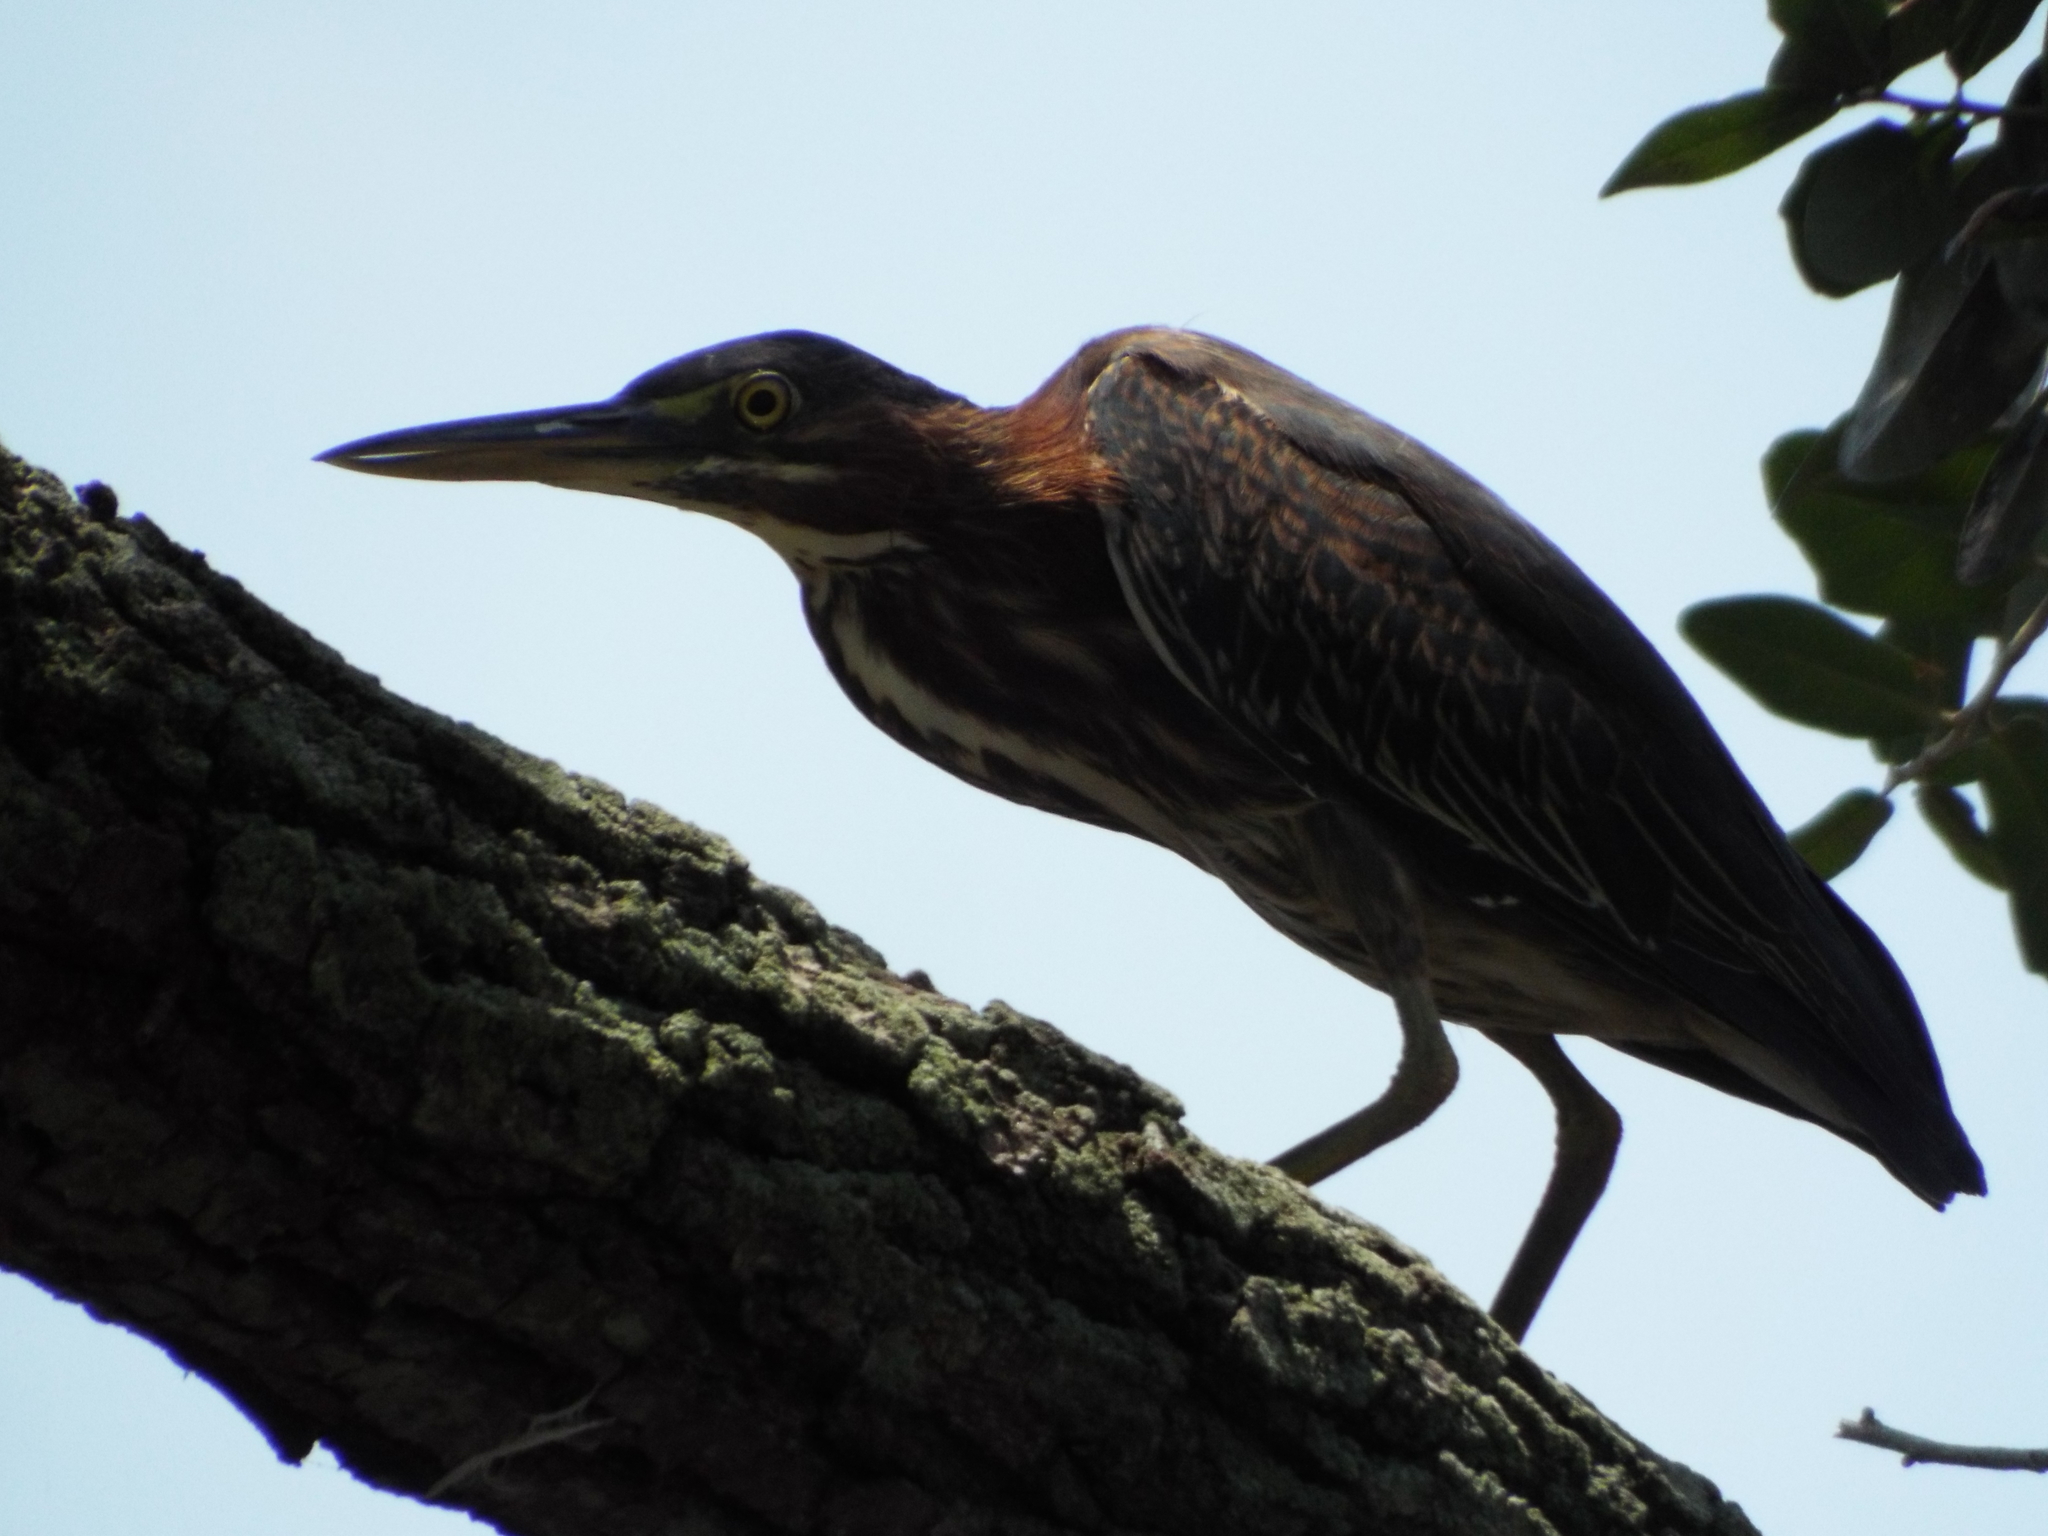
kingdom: Animalia
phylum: Chordata
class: Aves
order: Pelecaniformes
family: Ardeidae
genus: Butorides
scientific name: Butorides virescens
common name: Green heron
